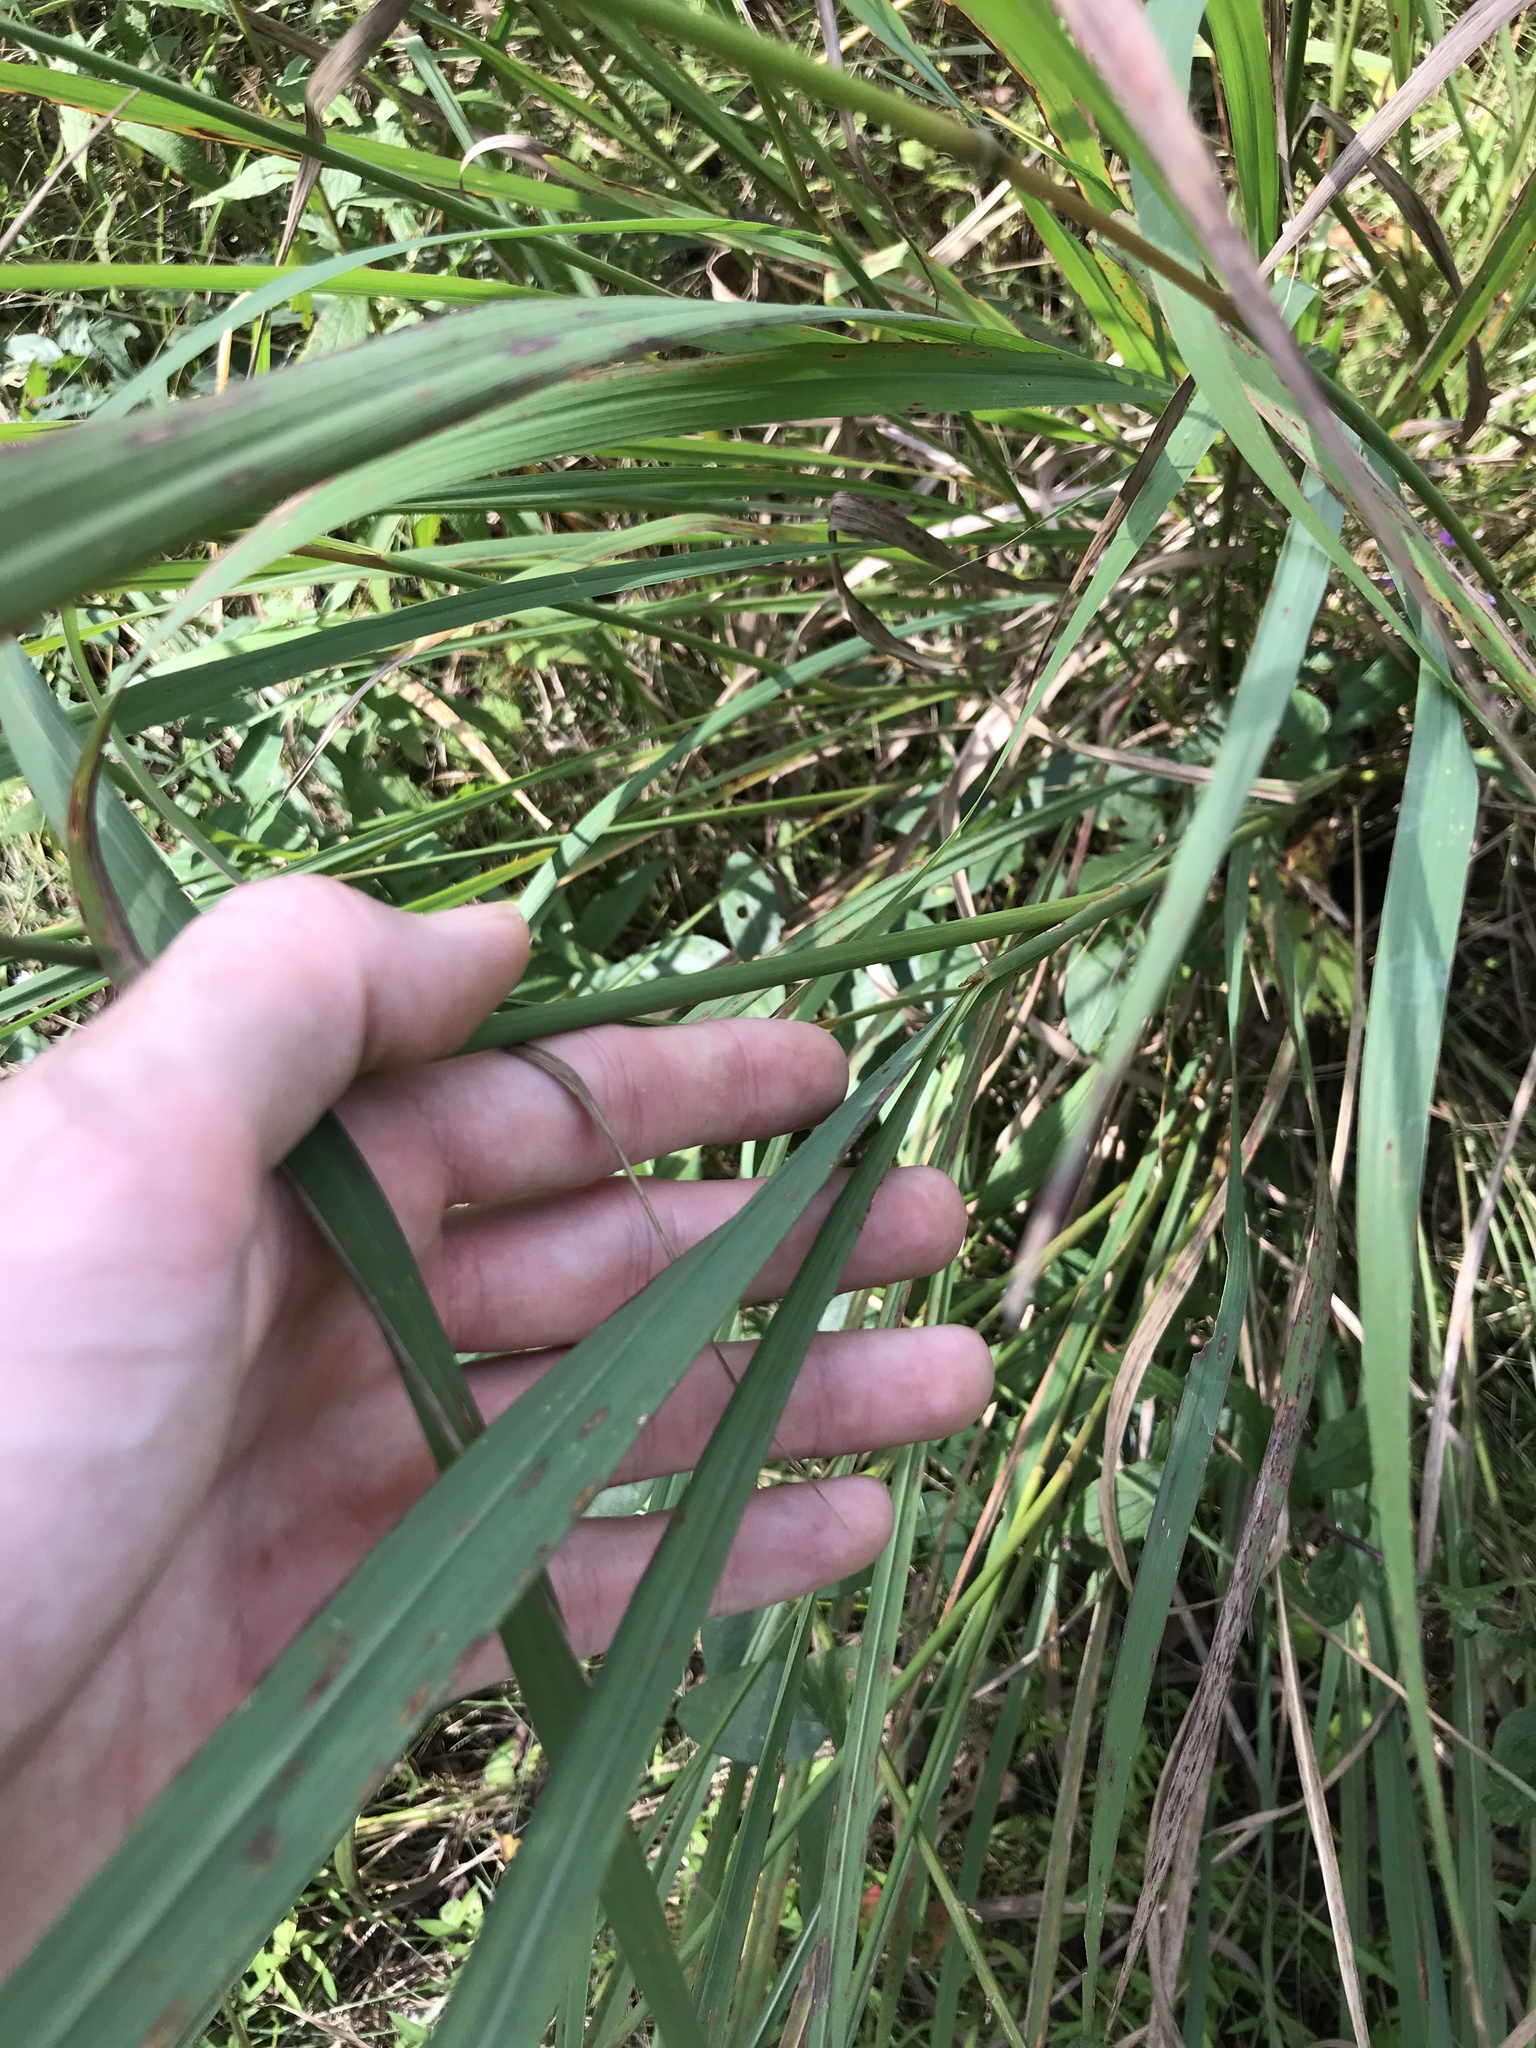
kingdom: Plantae
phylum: Tracheophyta
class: Liliopsida
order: Poales
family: Poaceae
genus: Sorghastrum
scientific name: Sorghastrum nutans
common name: Indian grass
